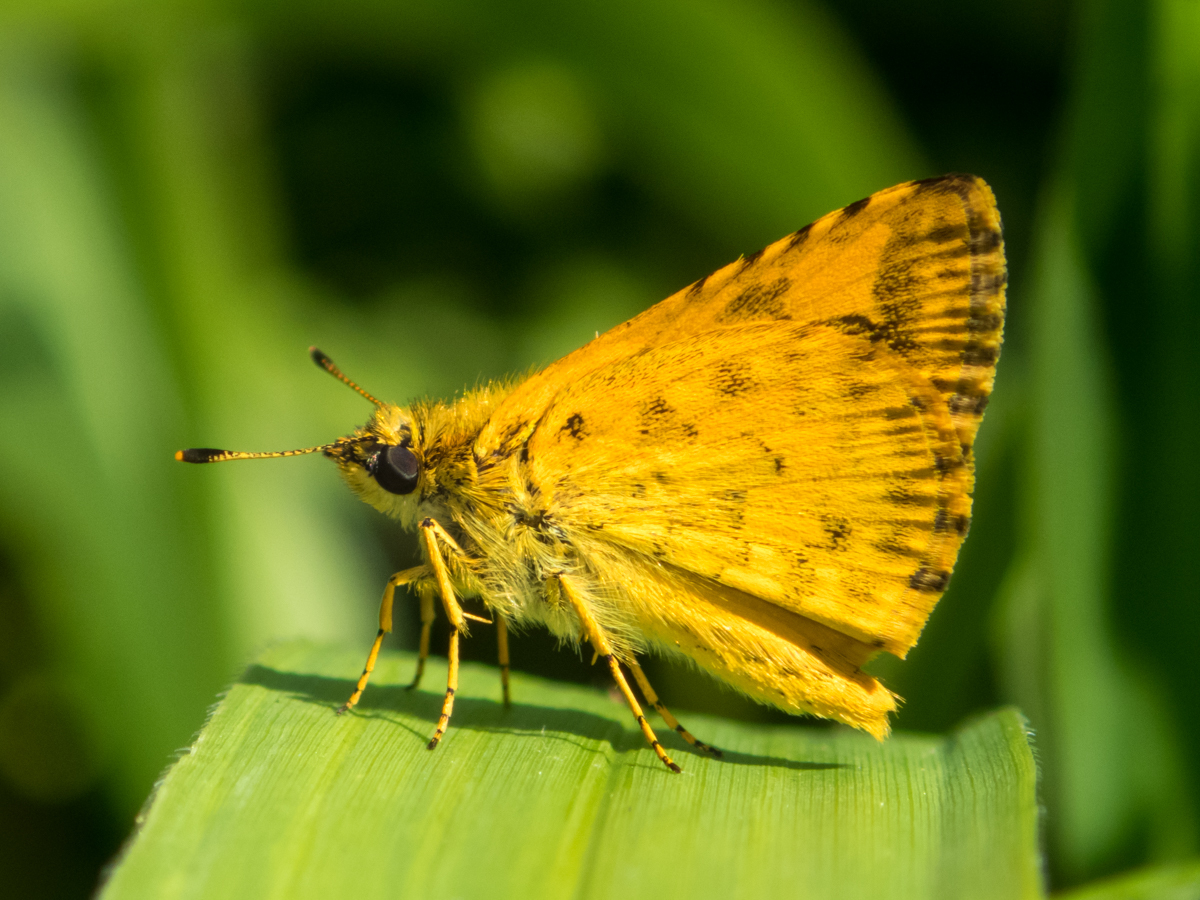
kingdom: Animalia
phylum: Arthropoda
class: Insecta
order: Lepidoptera
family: Hesperiidae
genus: Ampittia
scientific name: Ampittia dioscorides
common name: Common bush hopper
